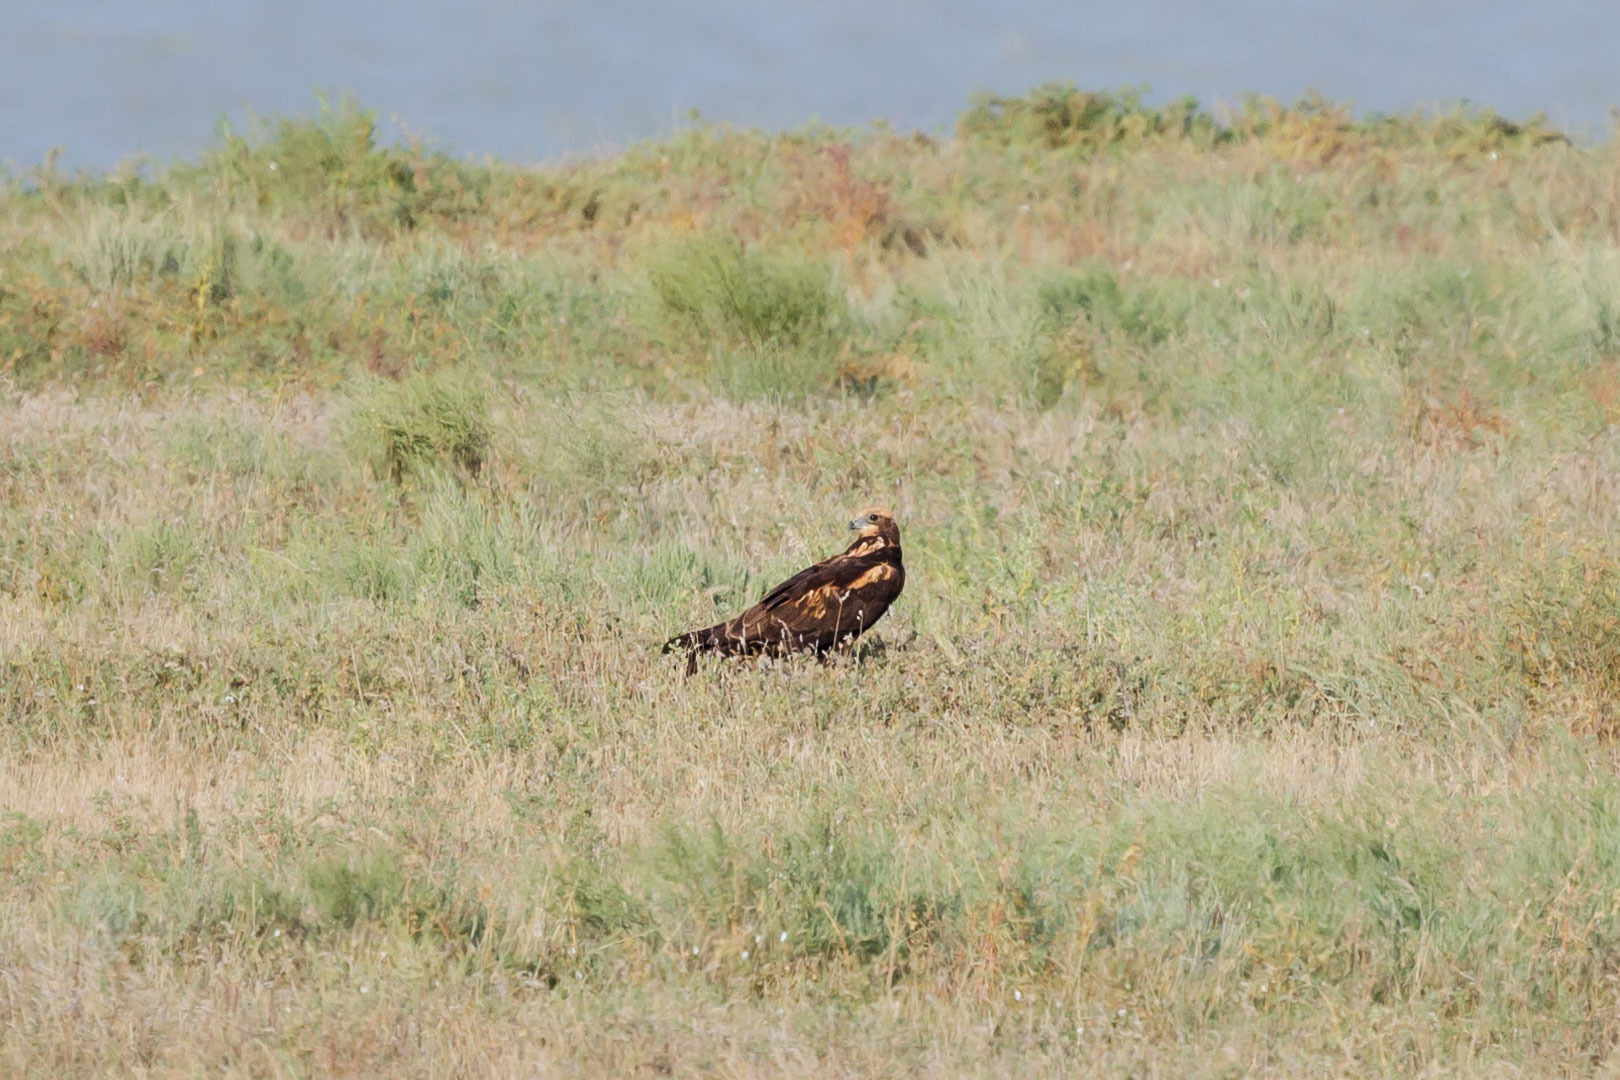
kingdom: Animalia
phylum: Chordata
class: Aves
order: Accipitriformes
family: Accipitridae
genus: Circus
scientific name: Circus aeruginosus
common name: Western marsh harrier
